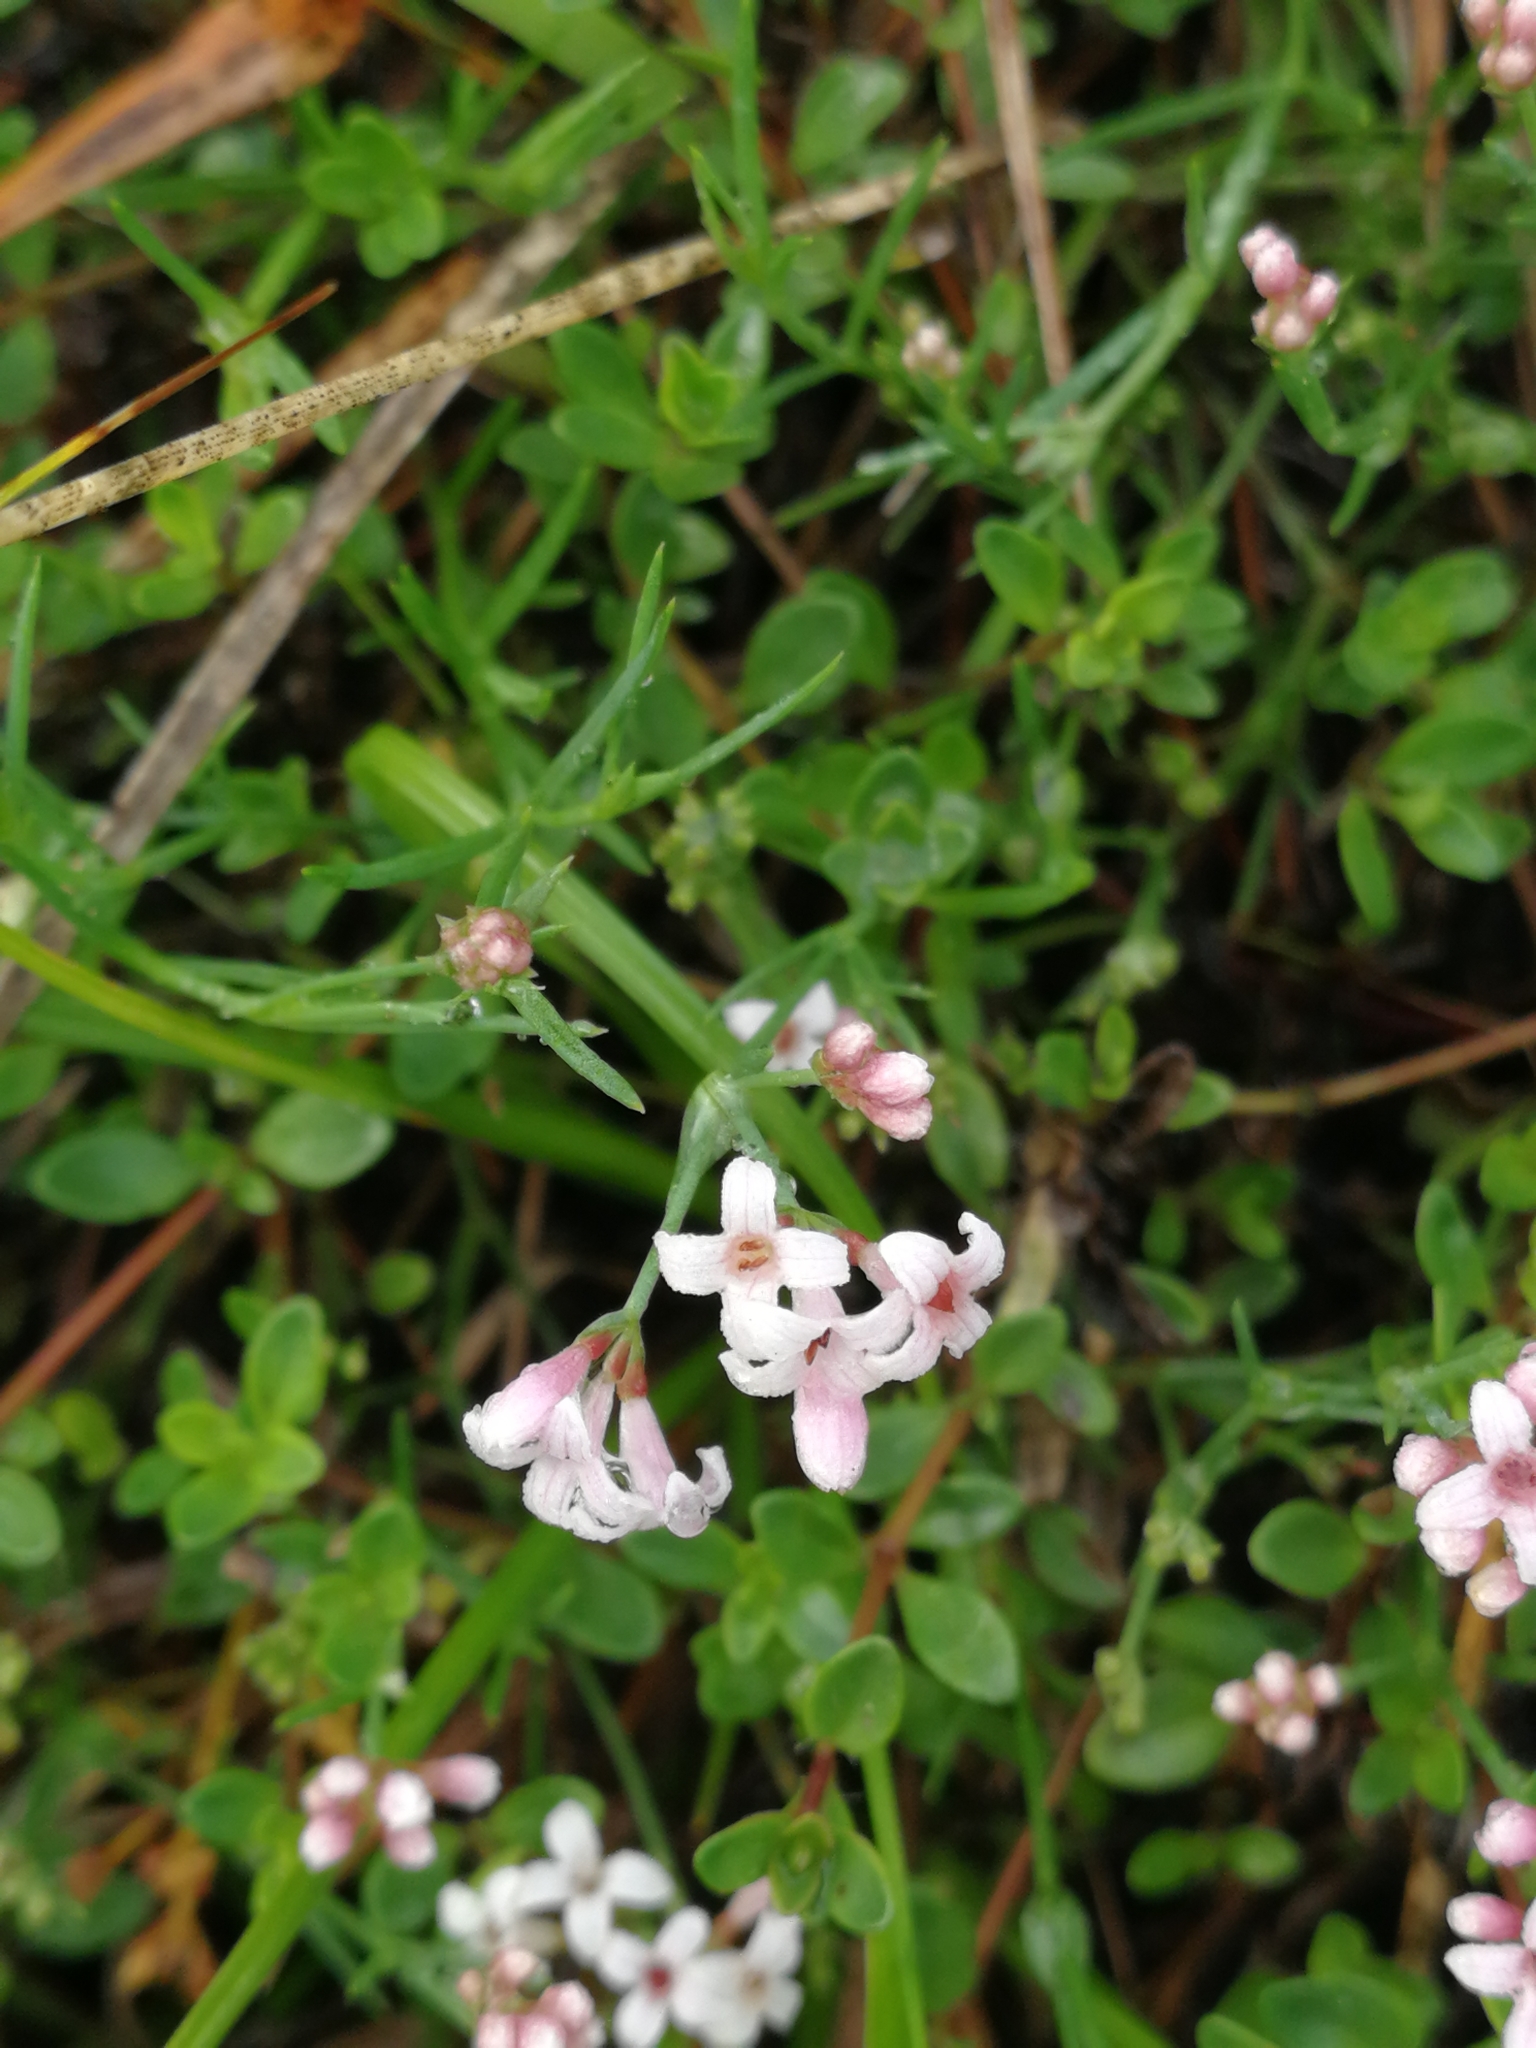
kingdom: Plantae
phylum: Tracheophyta
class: Magnoliopsida
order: Gentianales
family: Rubiaceae
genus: Cynanchica
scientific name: Cynanchica pyrenaica
